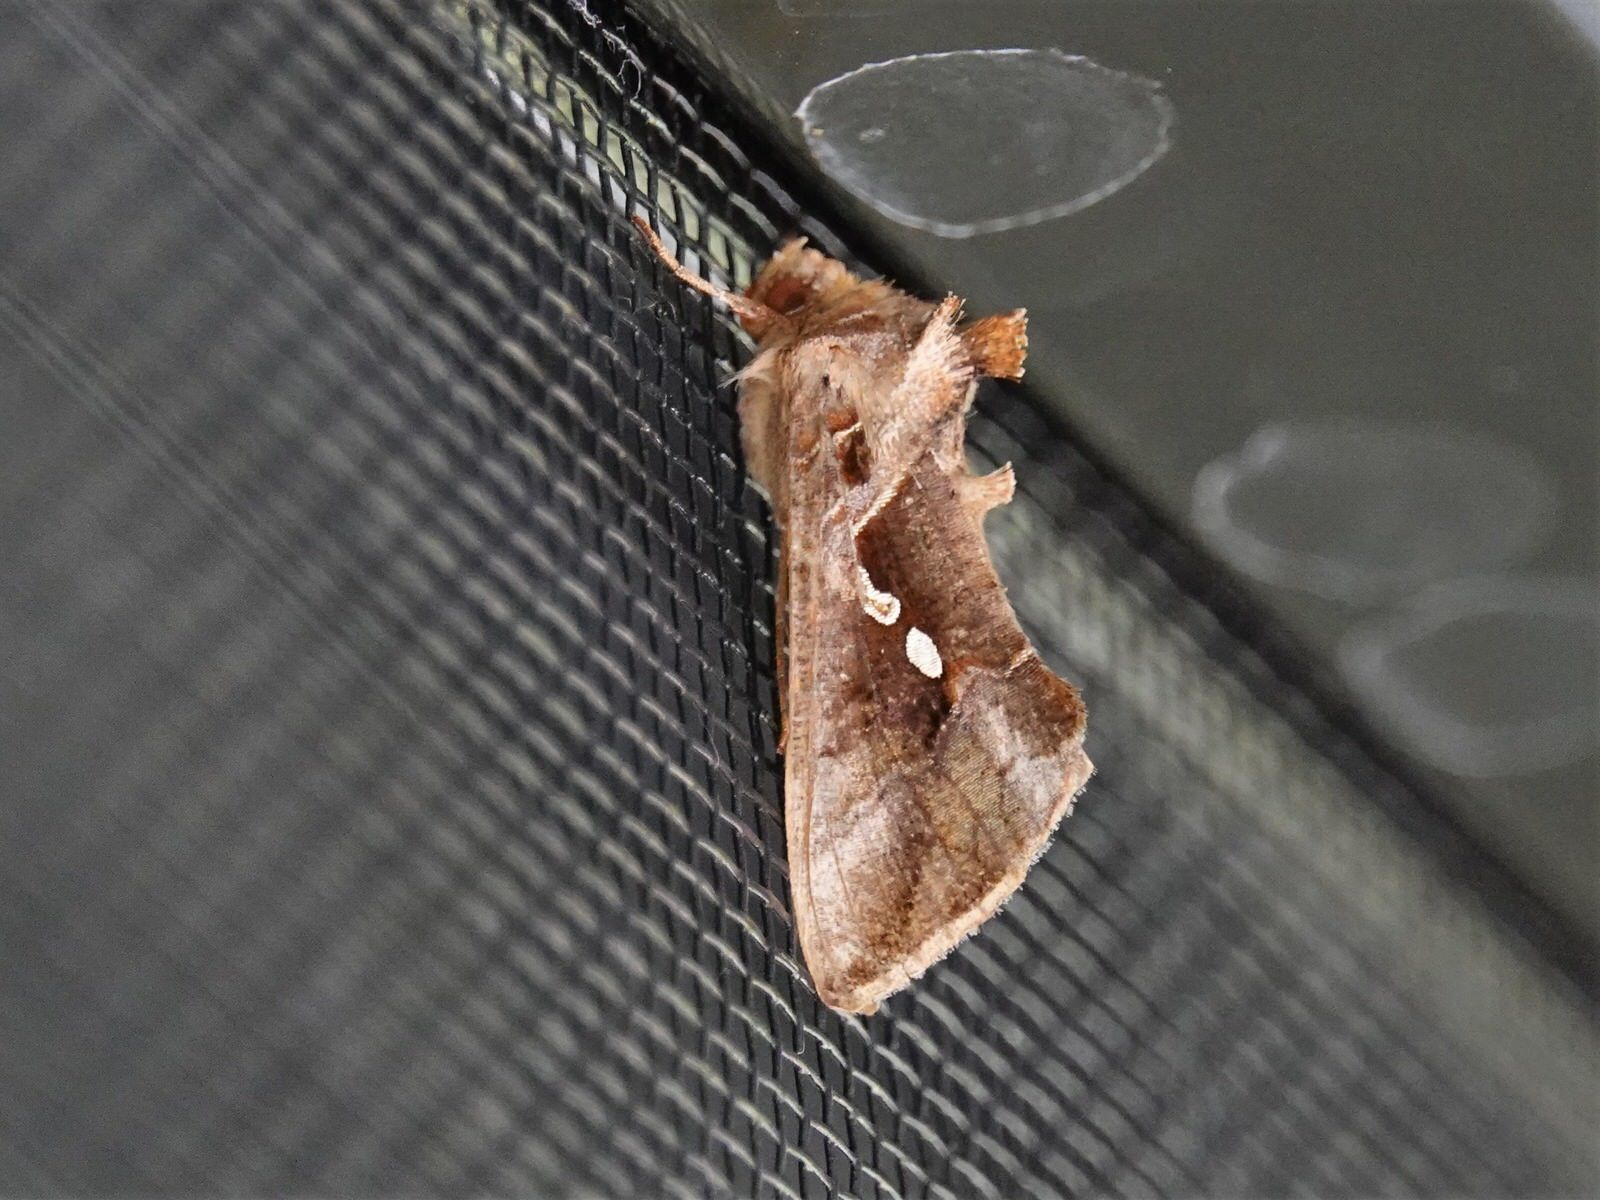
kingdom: Animalia
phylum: Arthropoda
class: Insecta
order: Lepidoptera
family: Noctuidae
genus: Chrysodeixis
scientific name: Chrysodeixis eriosoma
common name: Green garden looper
